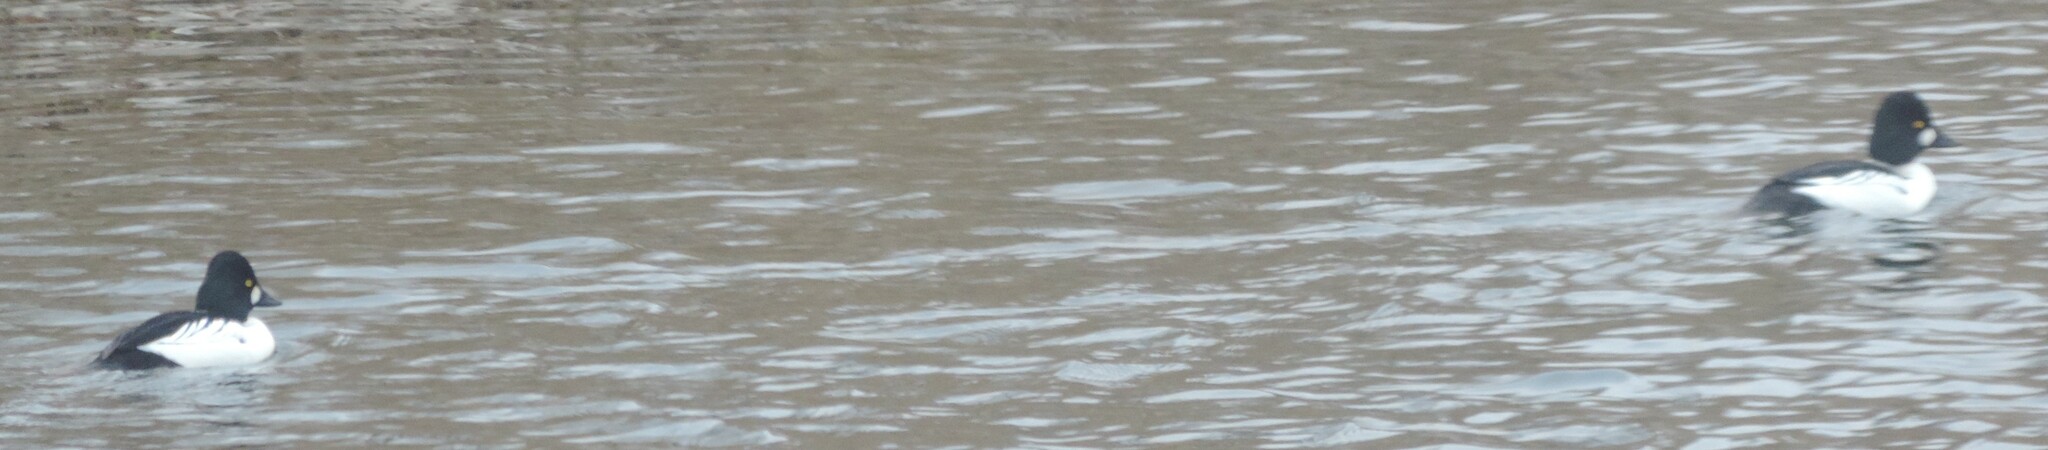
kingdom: Animalia
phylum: Chordata
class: Aves
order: Anseriformes
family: Anatidae
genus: Bucephala
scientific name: Bucephala clangula
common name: Common goldeneye
